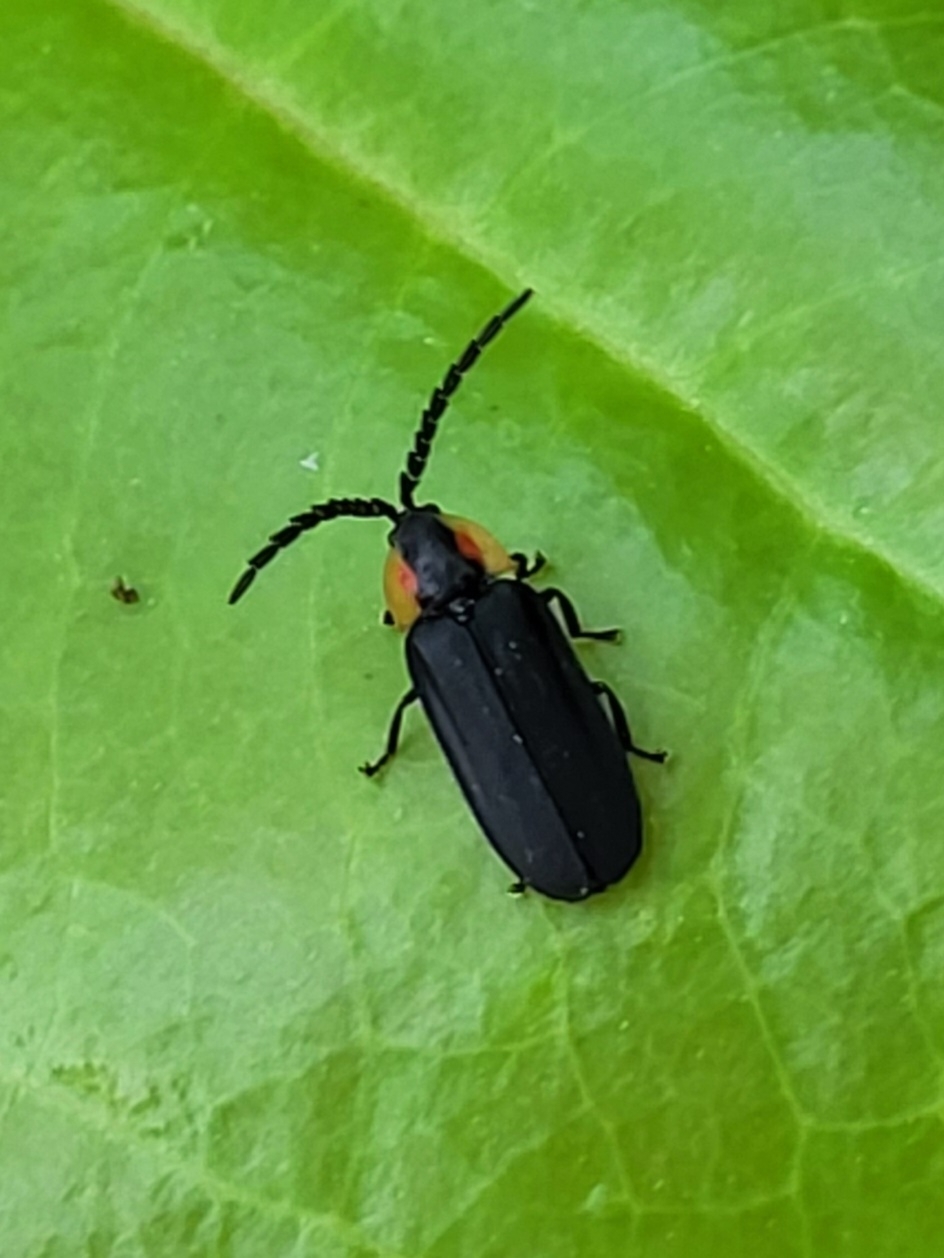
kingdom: Animalia
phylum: Arthropoda
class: Insecta
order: Coleoptera
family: Lampyridae
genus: Lucidota
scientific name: Lucidota atra
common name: Black firefly
